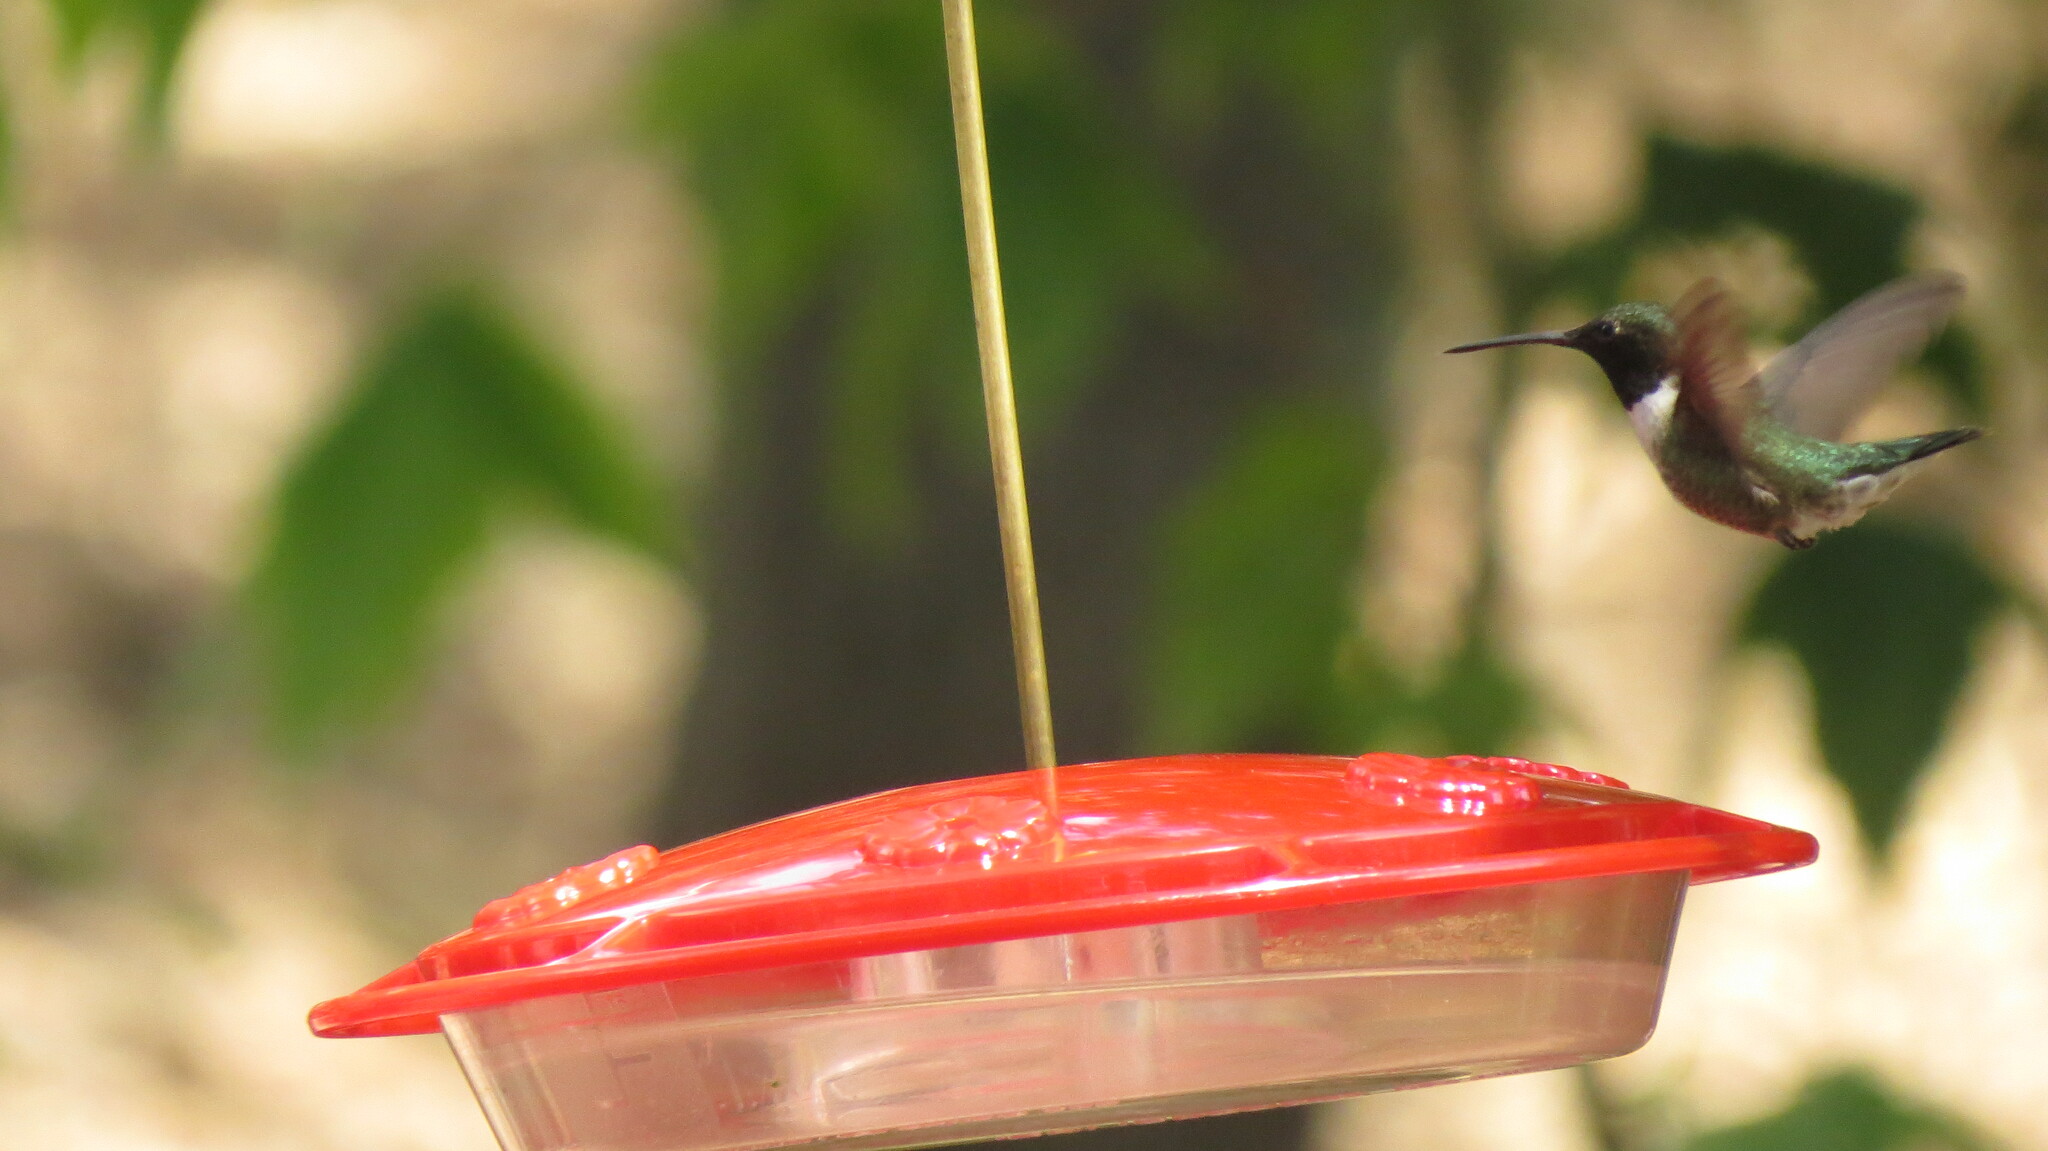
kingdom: Animalia
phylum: Chordata
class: Aves
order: Apodiformes
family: Trochilidae
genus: Archilochus
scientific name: Archilochus alexandri
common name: Black-chinned hummingbird
